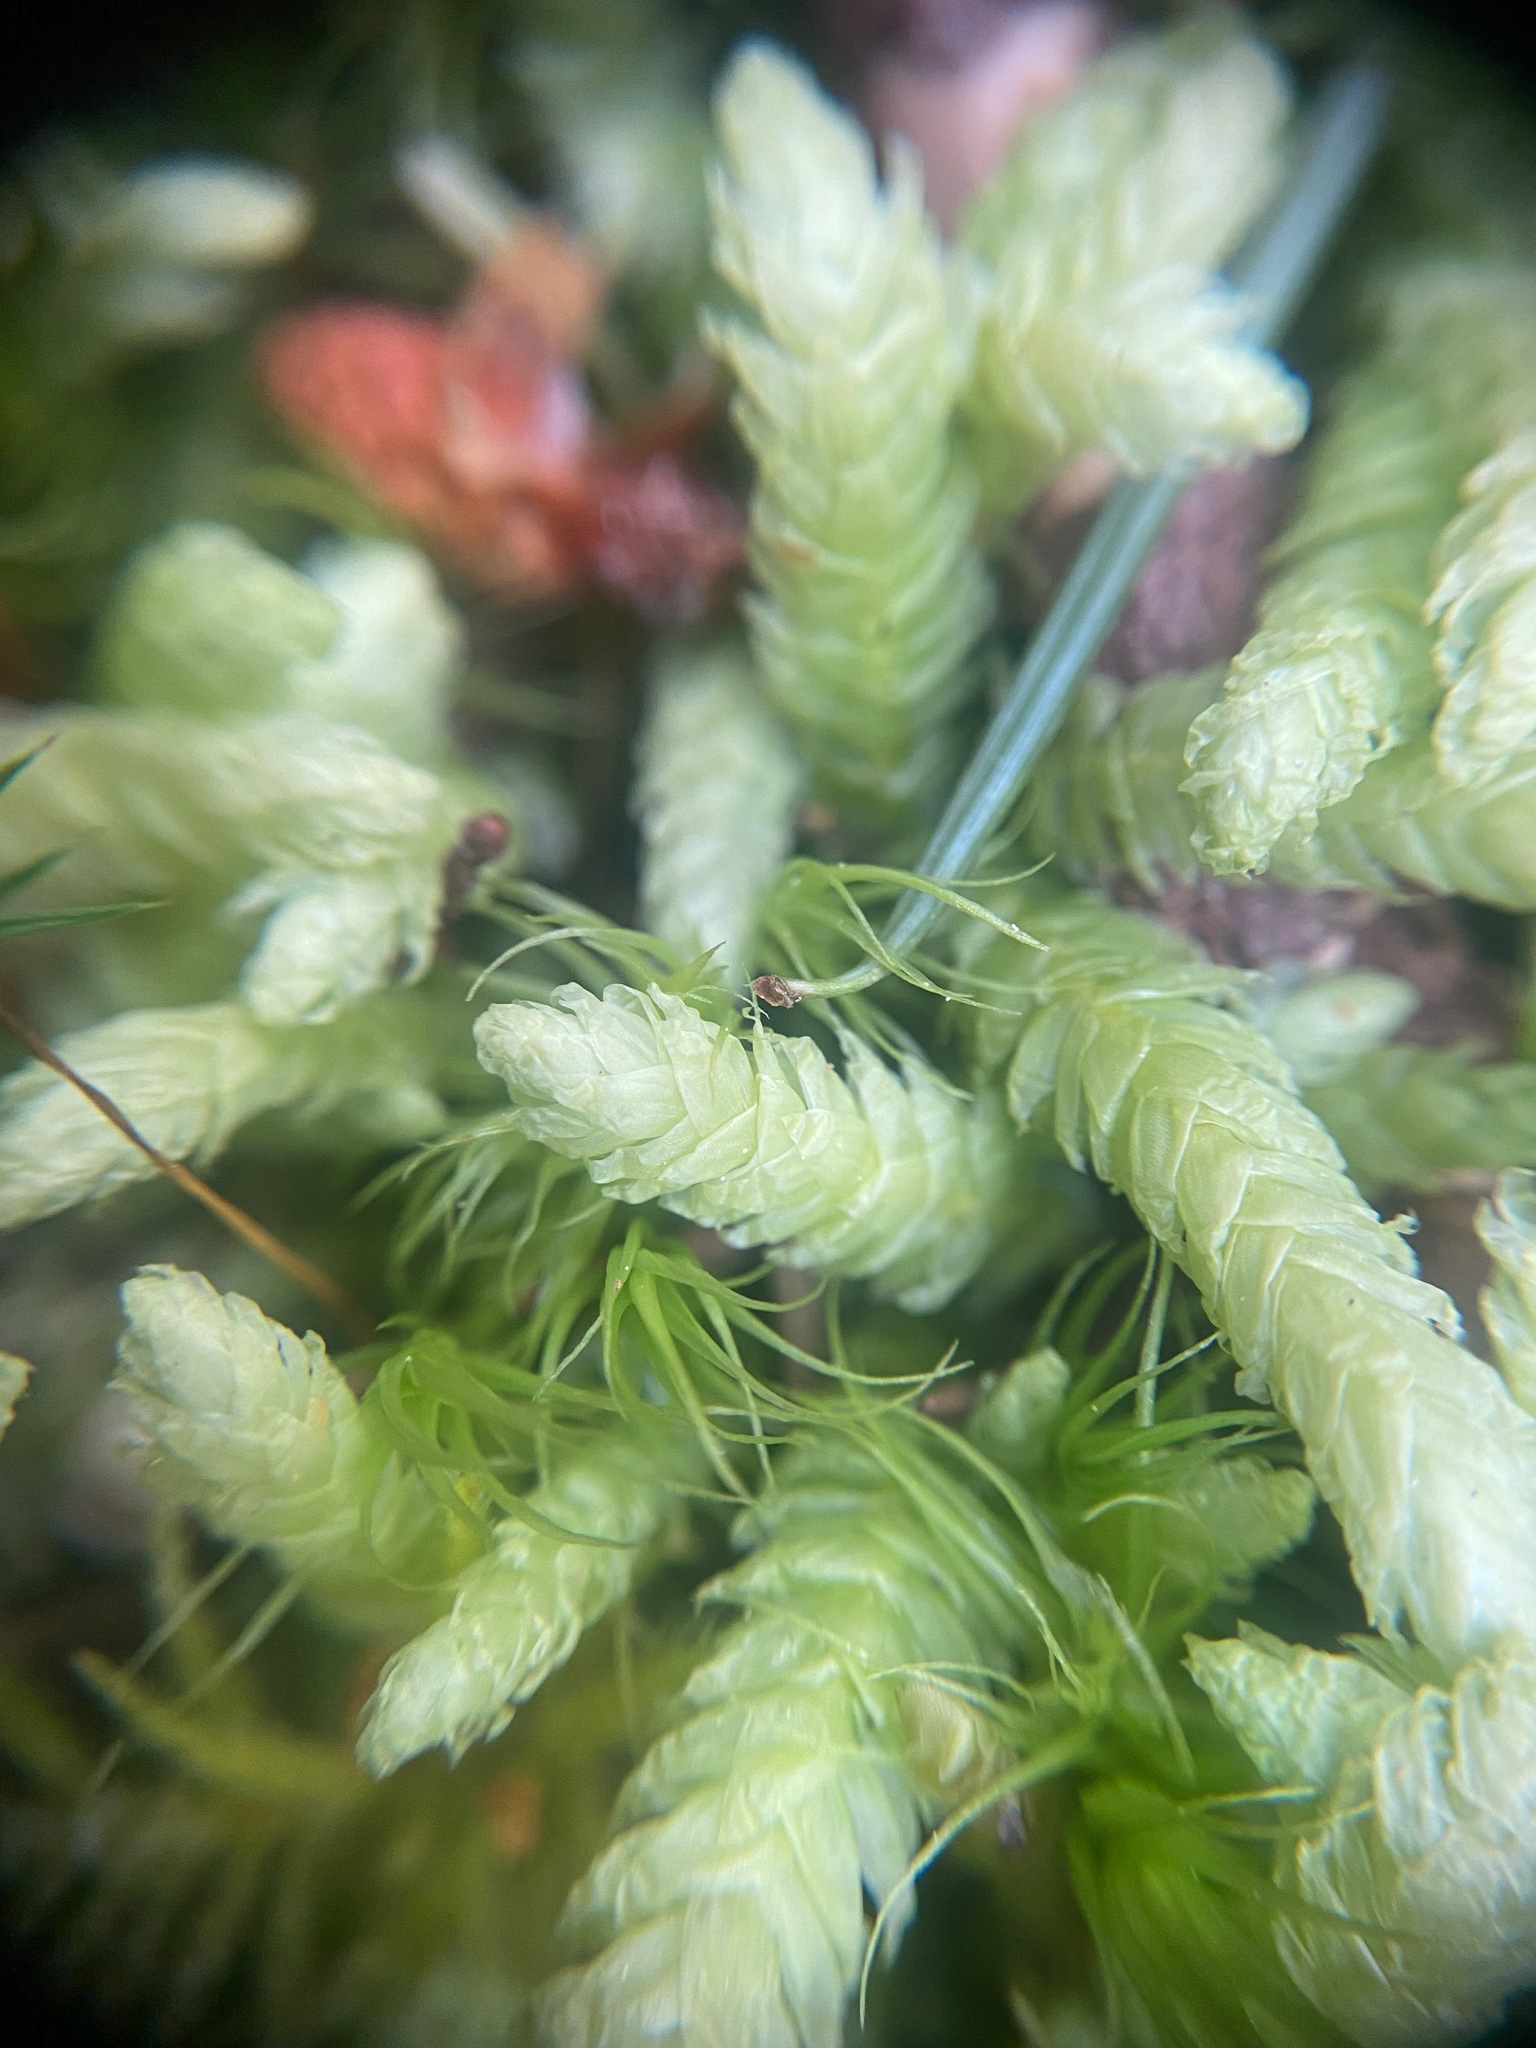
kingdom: Plantae
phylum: Bryophyta
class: Bryopsida
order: Hypnales
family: Plagiotheciaceae
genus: Plagiothecium
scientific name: Plagiothecium undulatum
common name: Waved silk-moss
